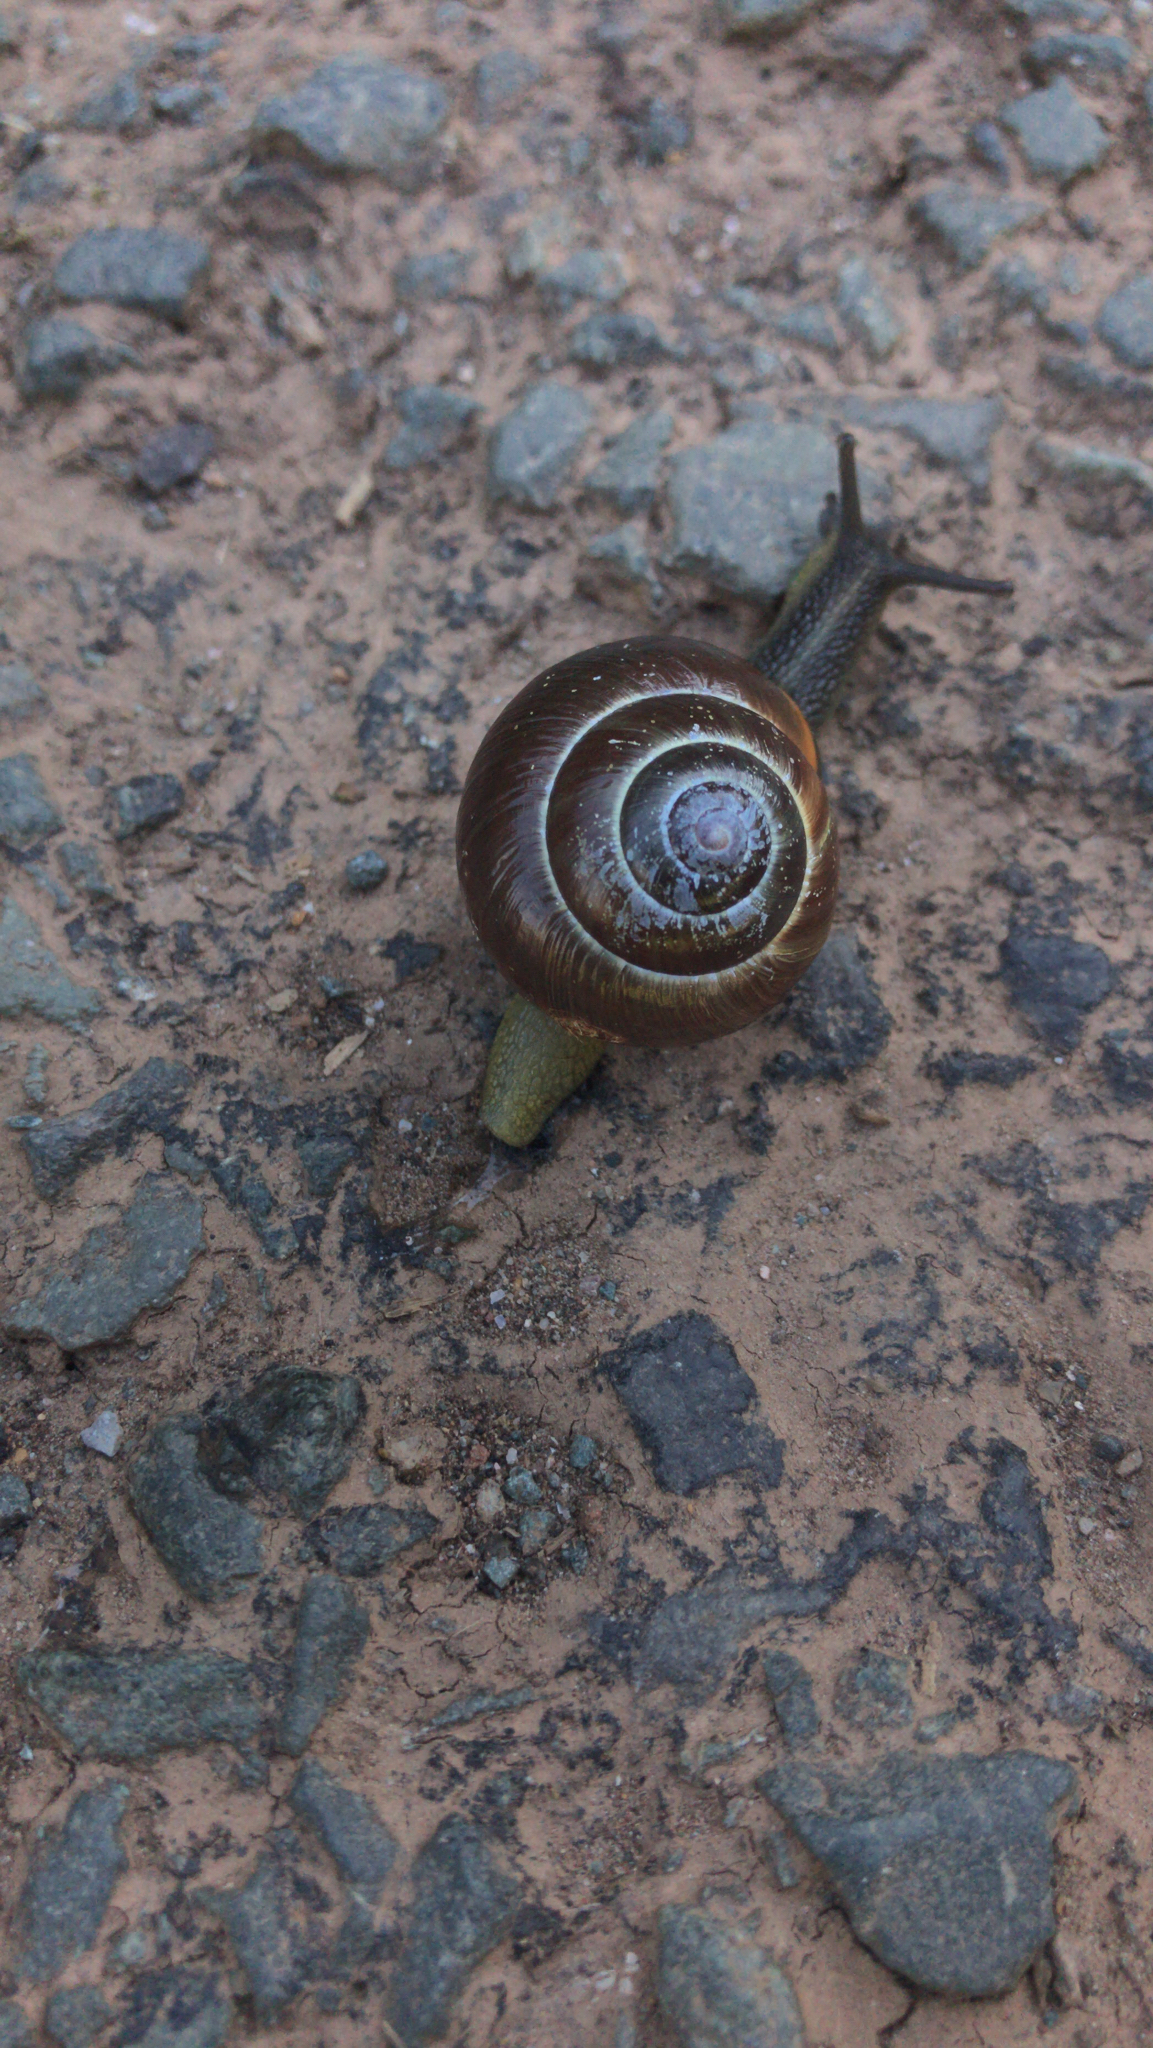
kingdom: Animalia
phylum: Mollusca
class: Gastropoda
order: Stylommatophora
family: Helicidae
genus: Cepaea
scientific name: Cepaea nemoralis
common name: Grovesnail
